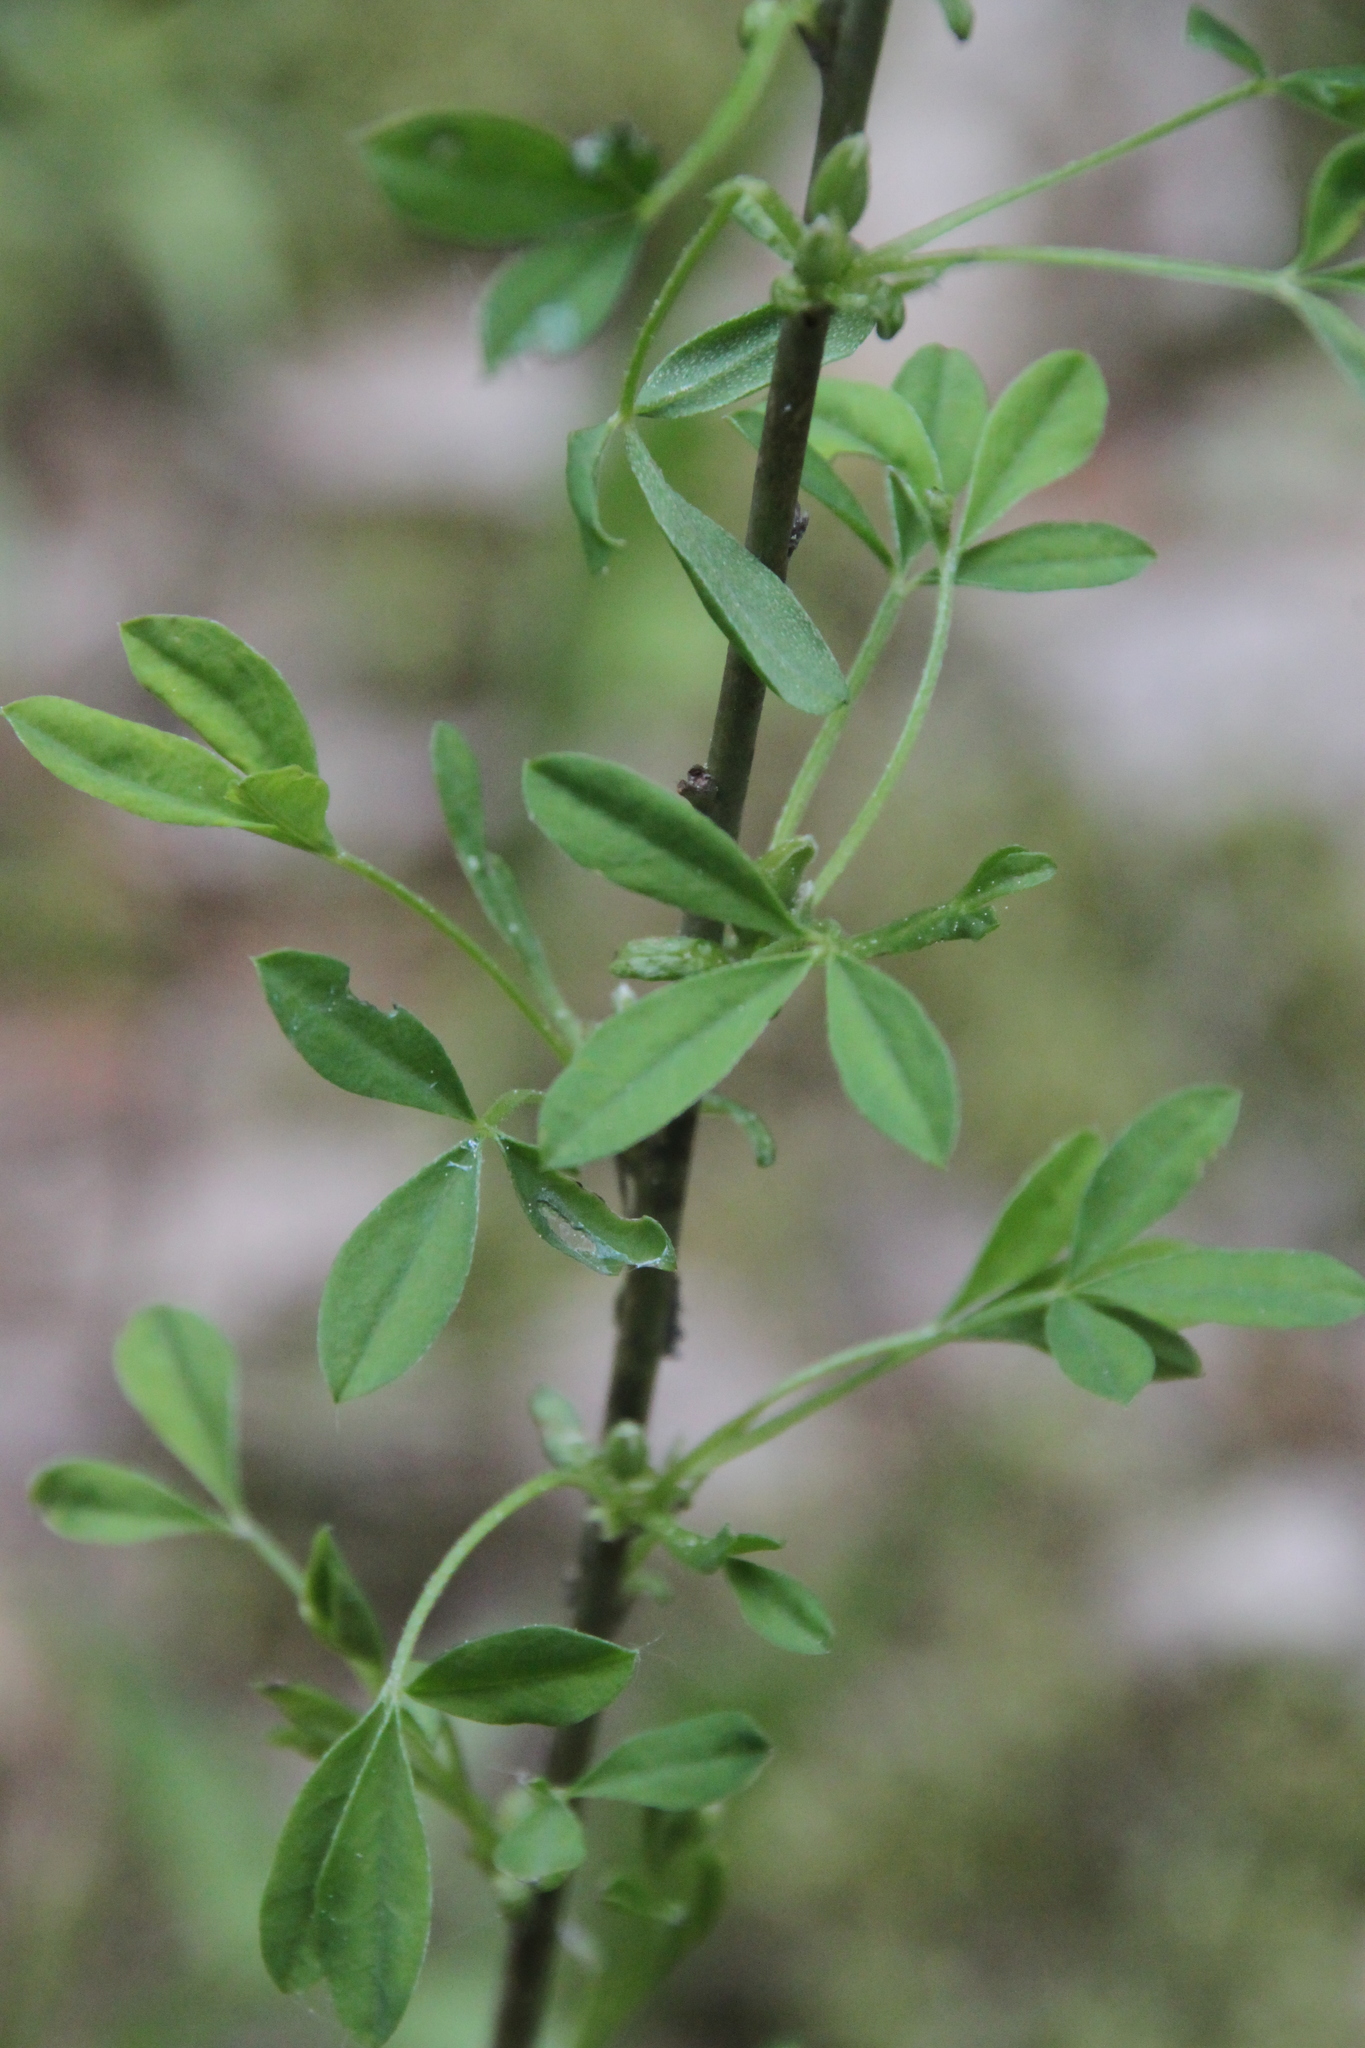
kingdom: Plantae
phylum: Tracheophyta
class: Magnoliopsida
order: Fabales
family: Fabaceae
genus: Chamaecytisus
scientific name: Chamaecytisus ruthenicus
